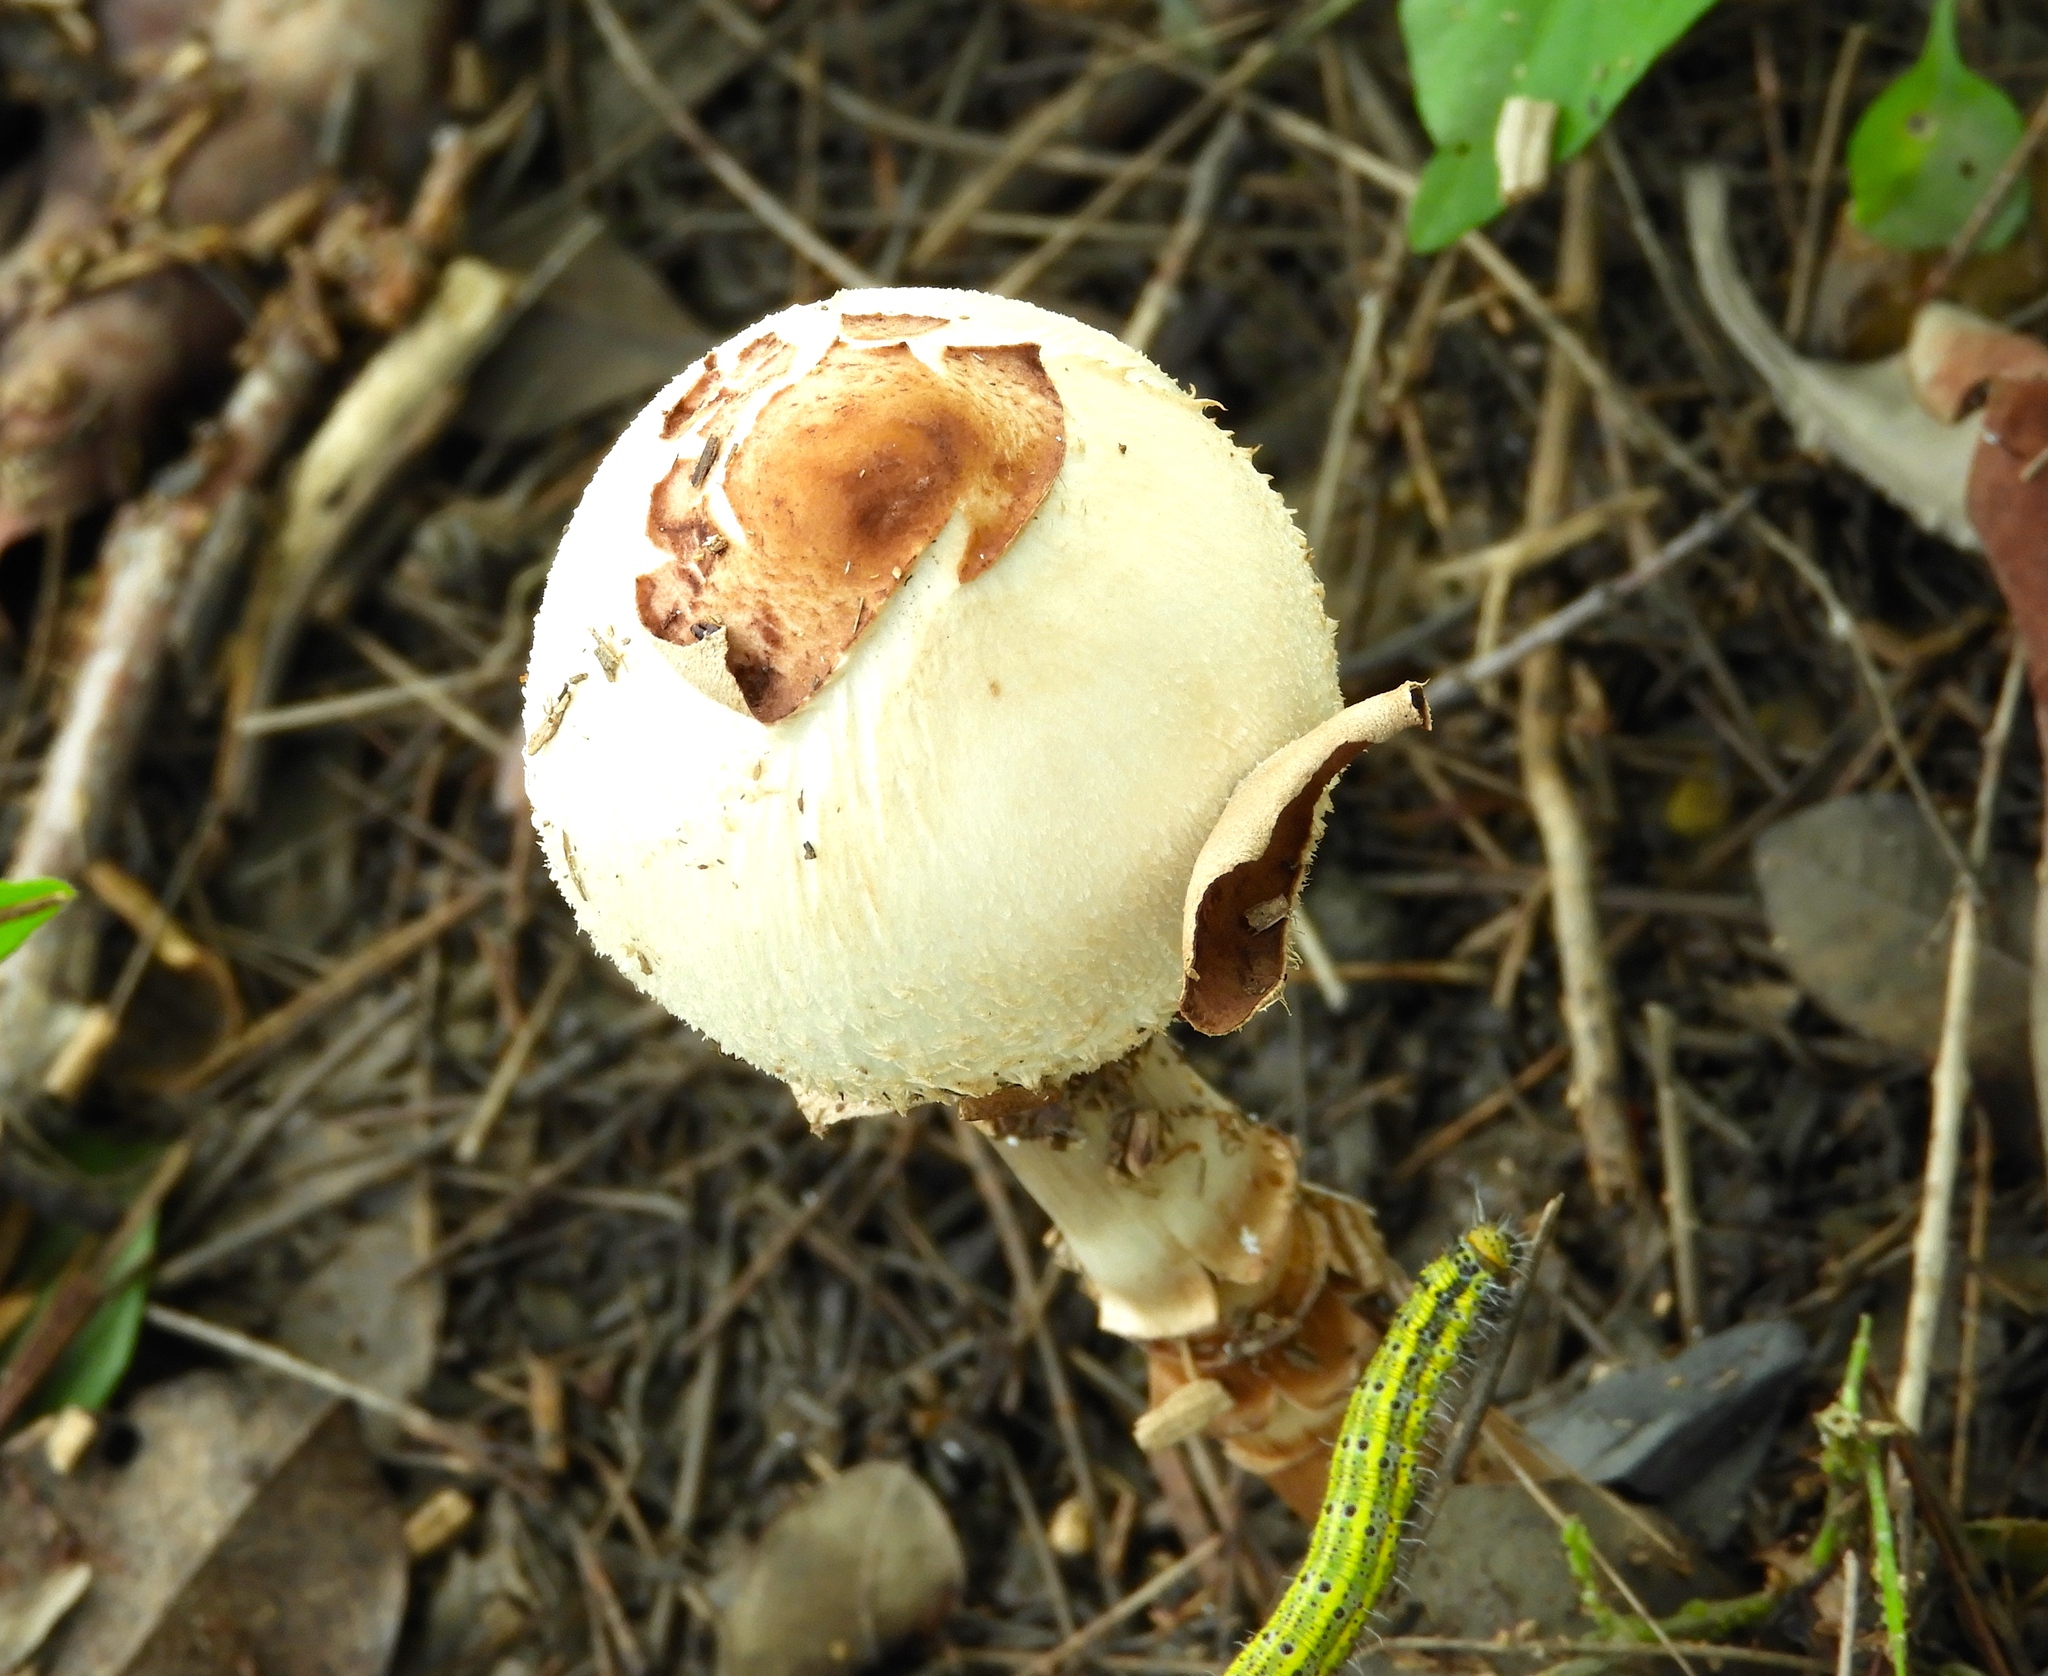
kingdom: Fungi
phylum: Basidiomycota
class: Agaricomycetes
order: Agaricales
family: Agaricaceae
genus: Chlorophyllum
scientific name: Chlorophyllum molybdites
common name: False parasol
